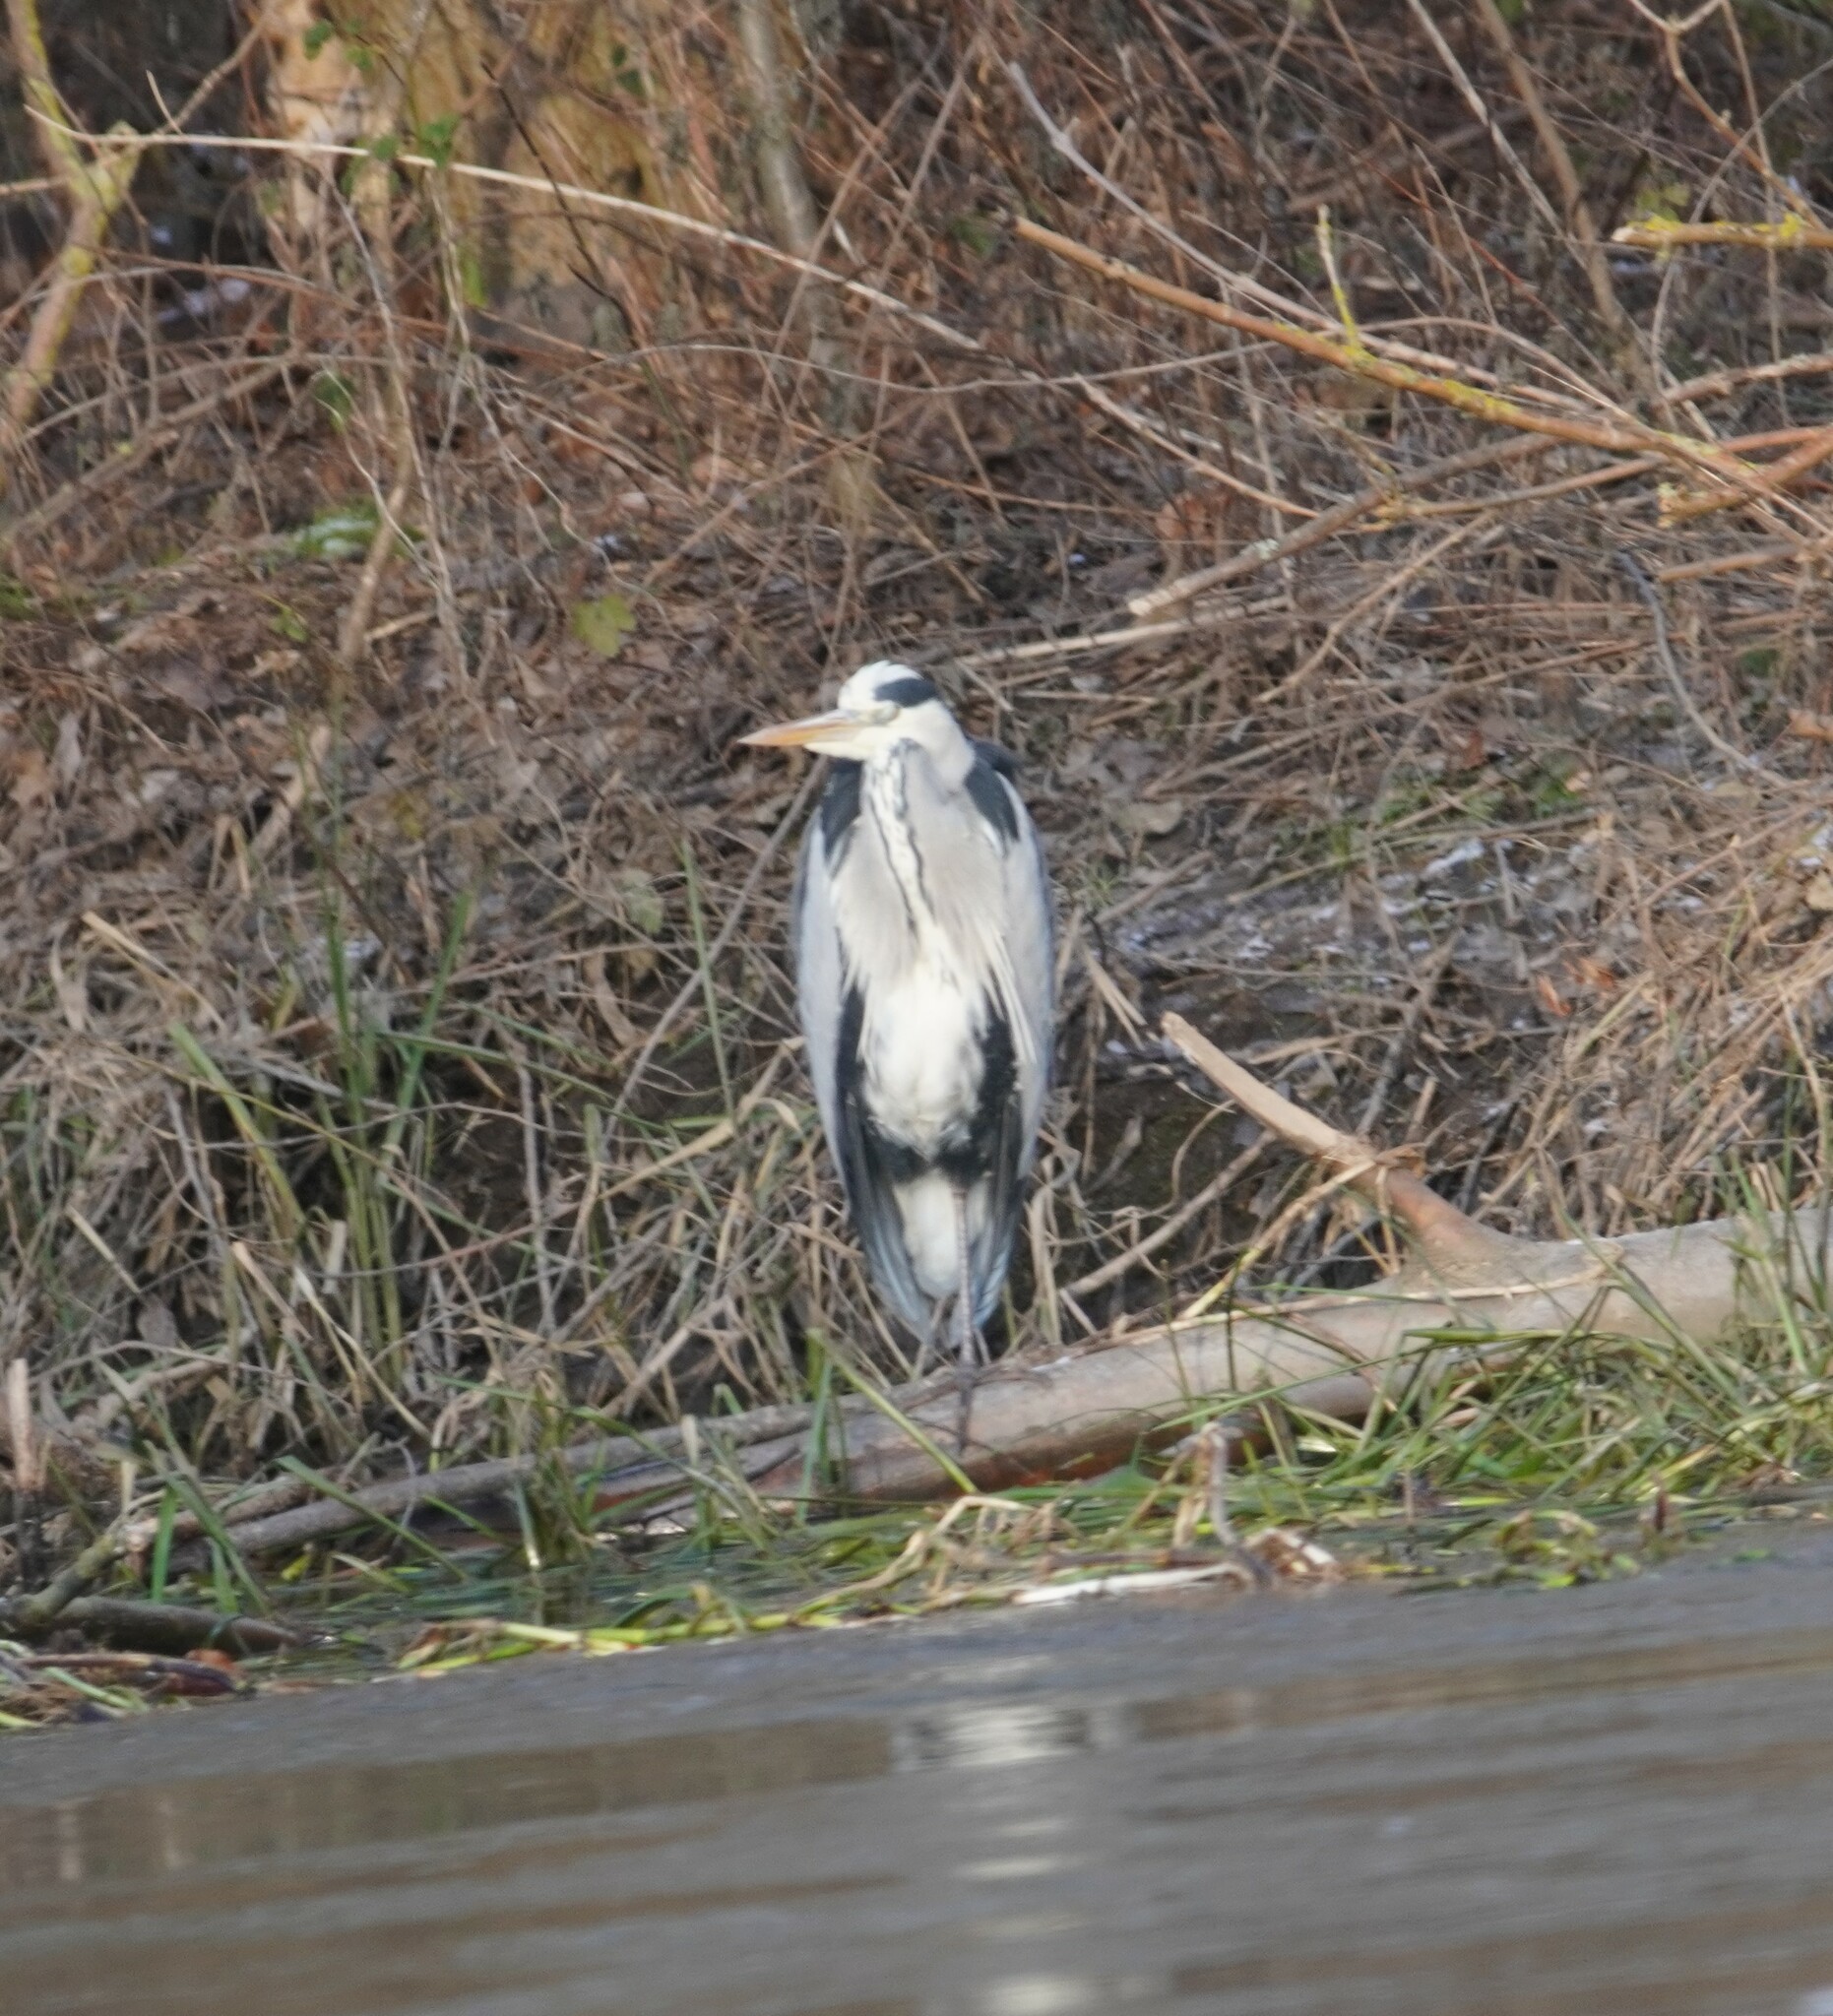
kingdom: Animalia
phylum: Chordata
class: Aves
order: Pelecaniformes
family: Ardeidae
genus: Ardea
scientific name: Ardea cinerea
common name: Grey heron
